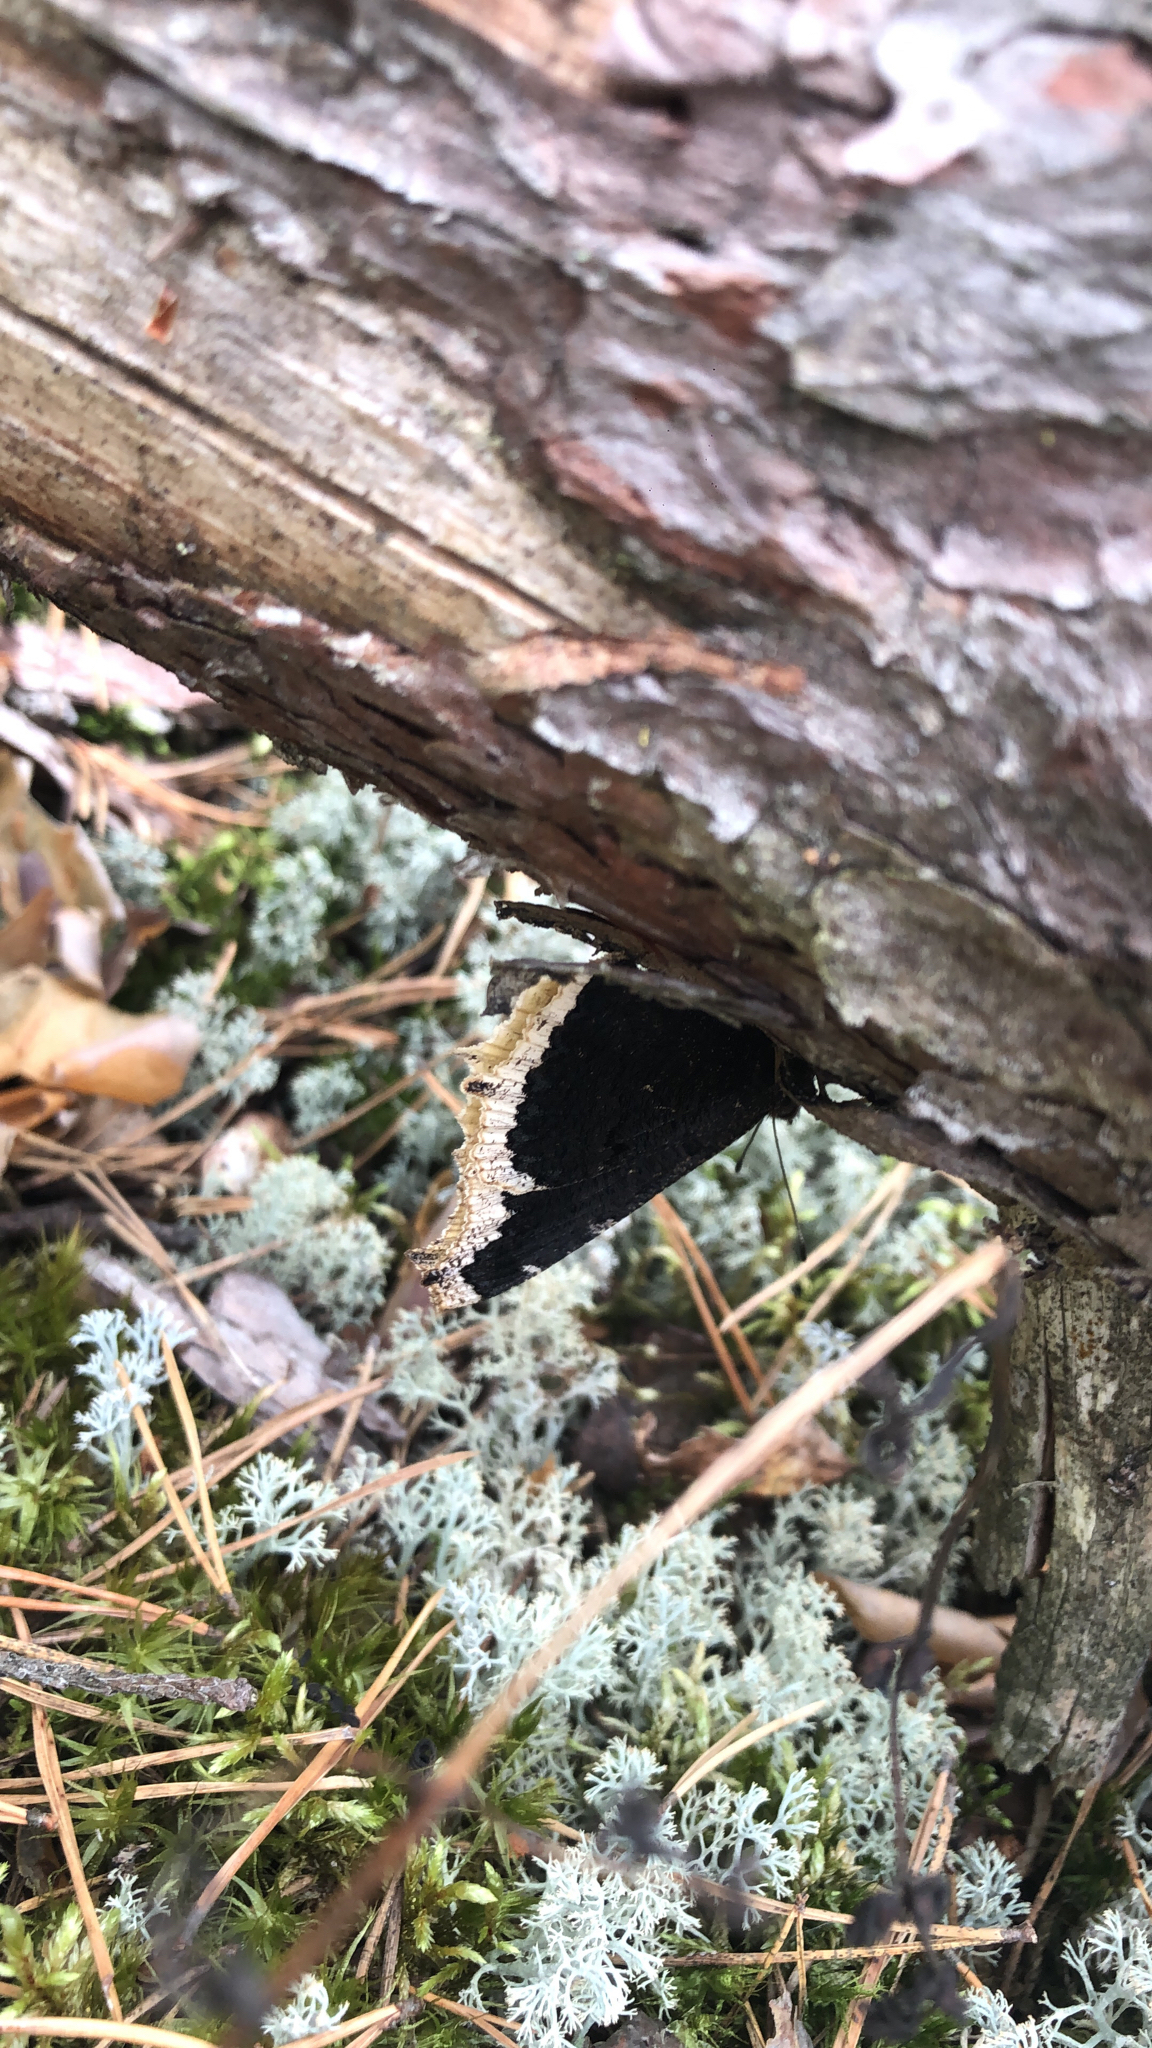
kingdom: Animalia
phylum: Arthropoda
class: Insecta
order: Lepidoptera
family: Nymphalidae
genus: Nymphalis
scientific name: Nymphalis antiopa
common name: Camberwell beauty
